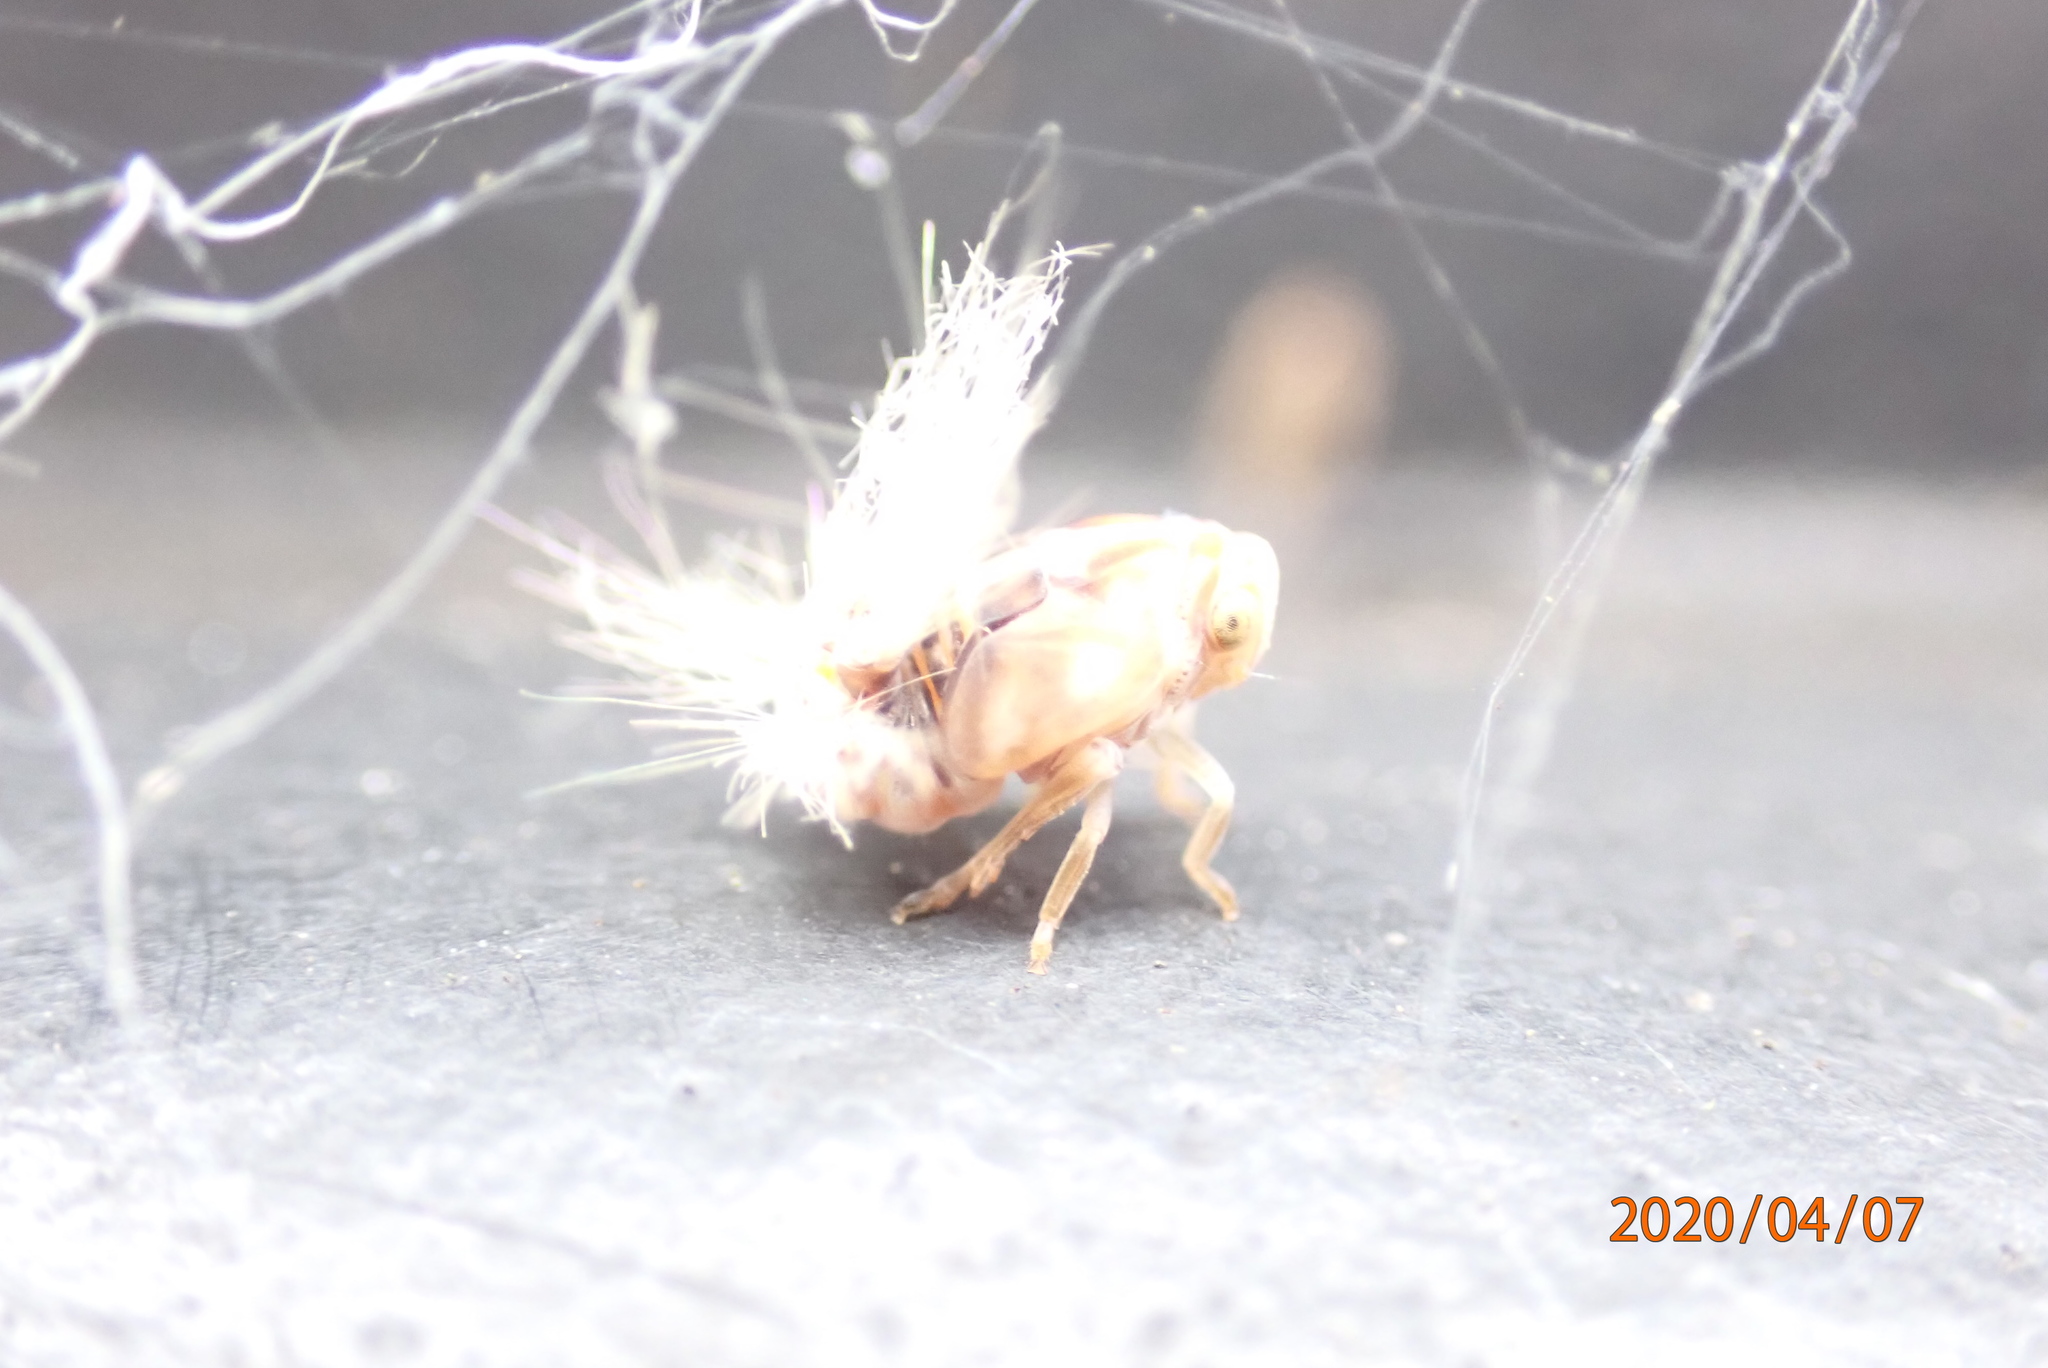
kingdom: Animalia
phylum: Arthropoda
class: Insecta
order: Hemiptera
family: Ricaniidae
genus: Scolypopa
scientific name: Scolypopa australis
